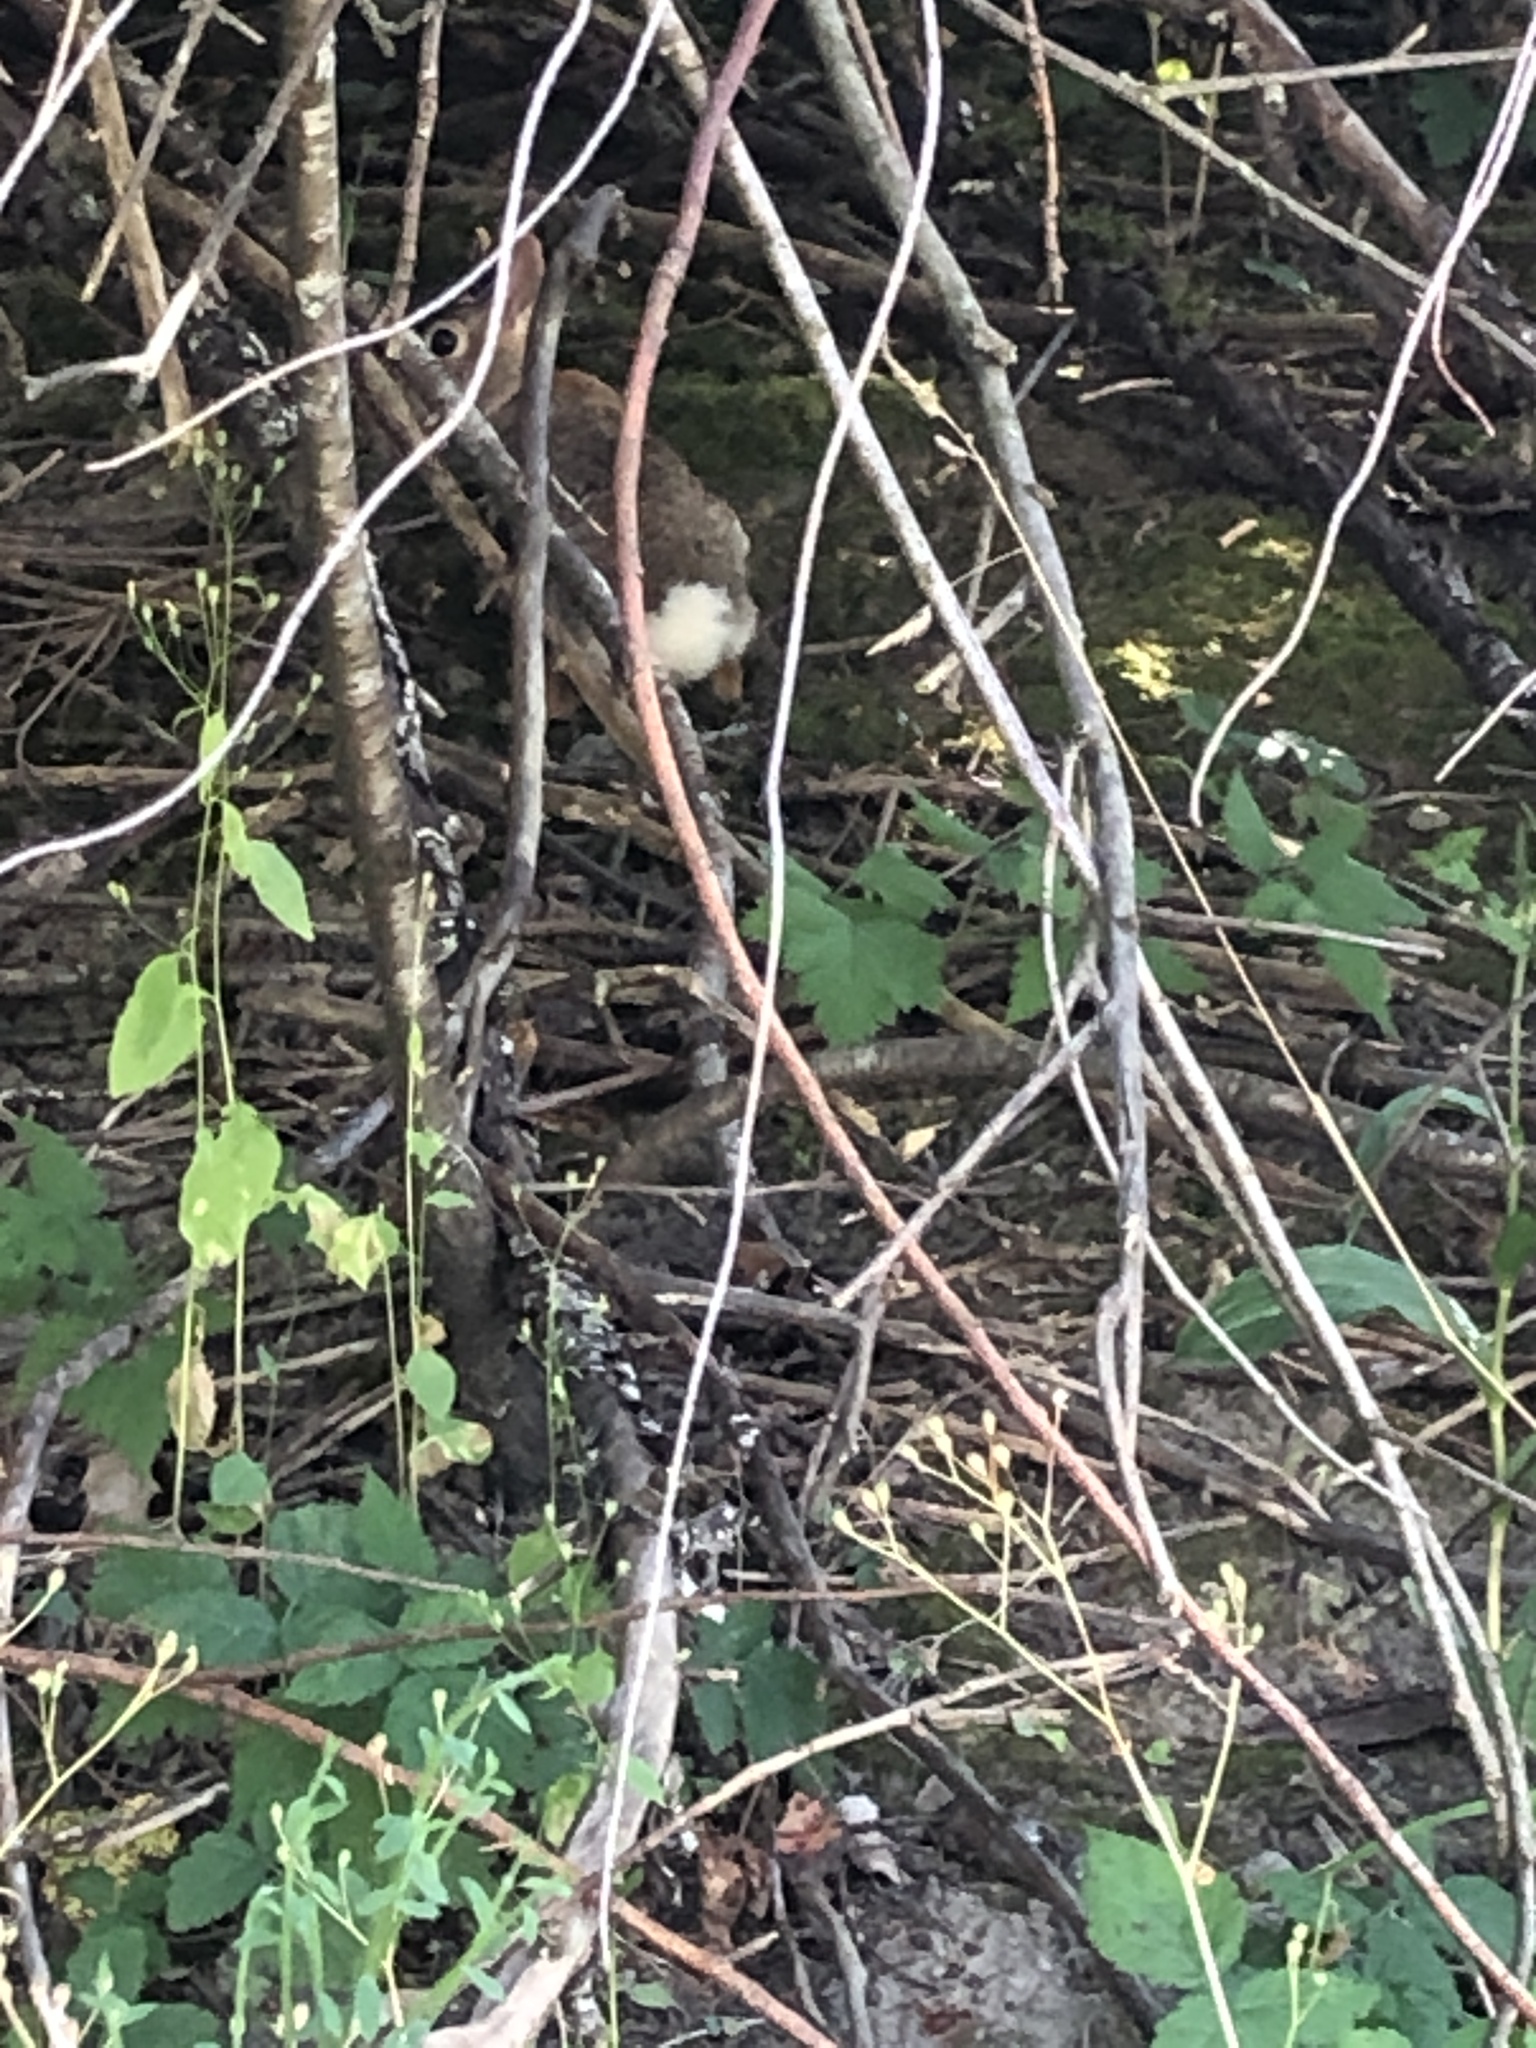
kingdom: Animalia
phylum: Chordata
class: Mammalia
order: Lagomorpha
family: Leporidae
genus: Sylvilagus
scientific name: Sylvilagus floridanus
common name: Eastern cottontail
